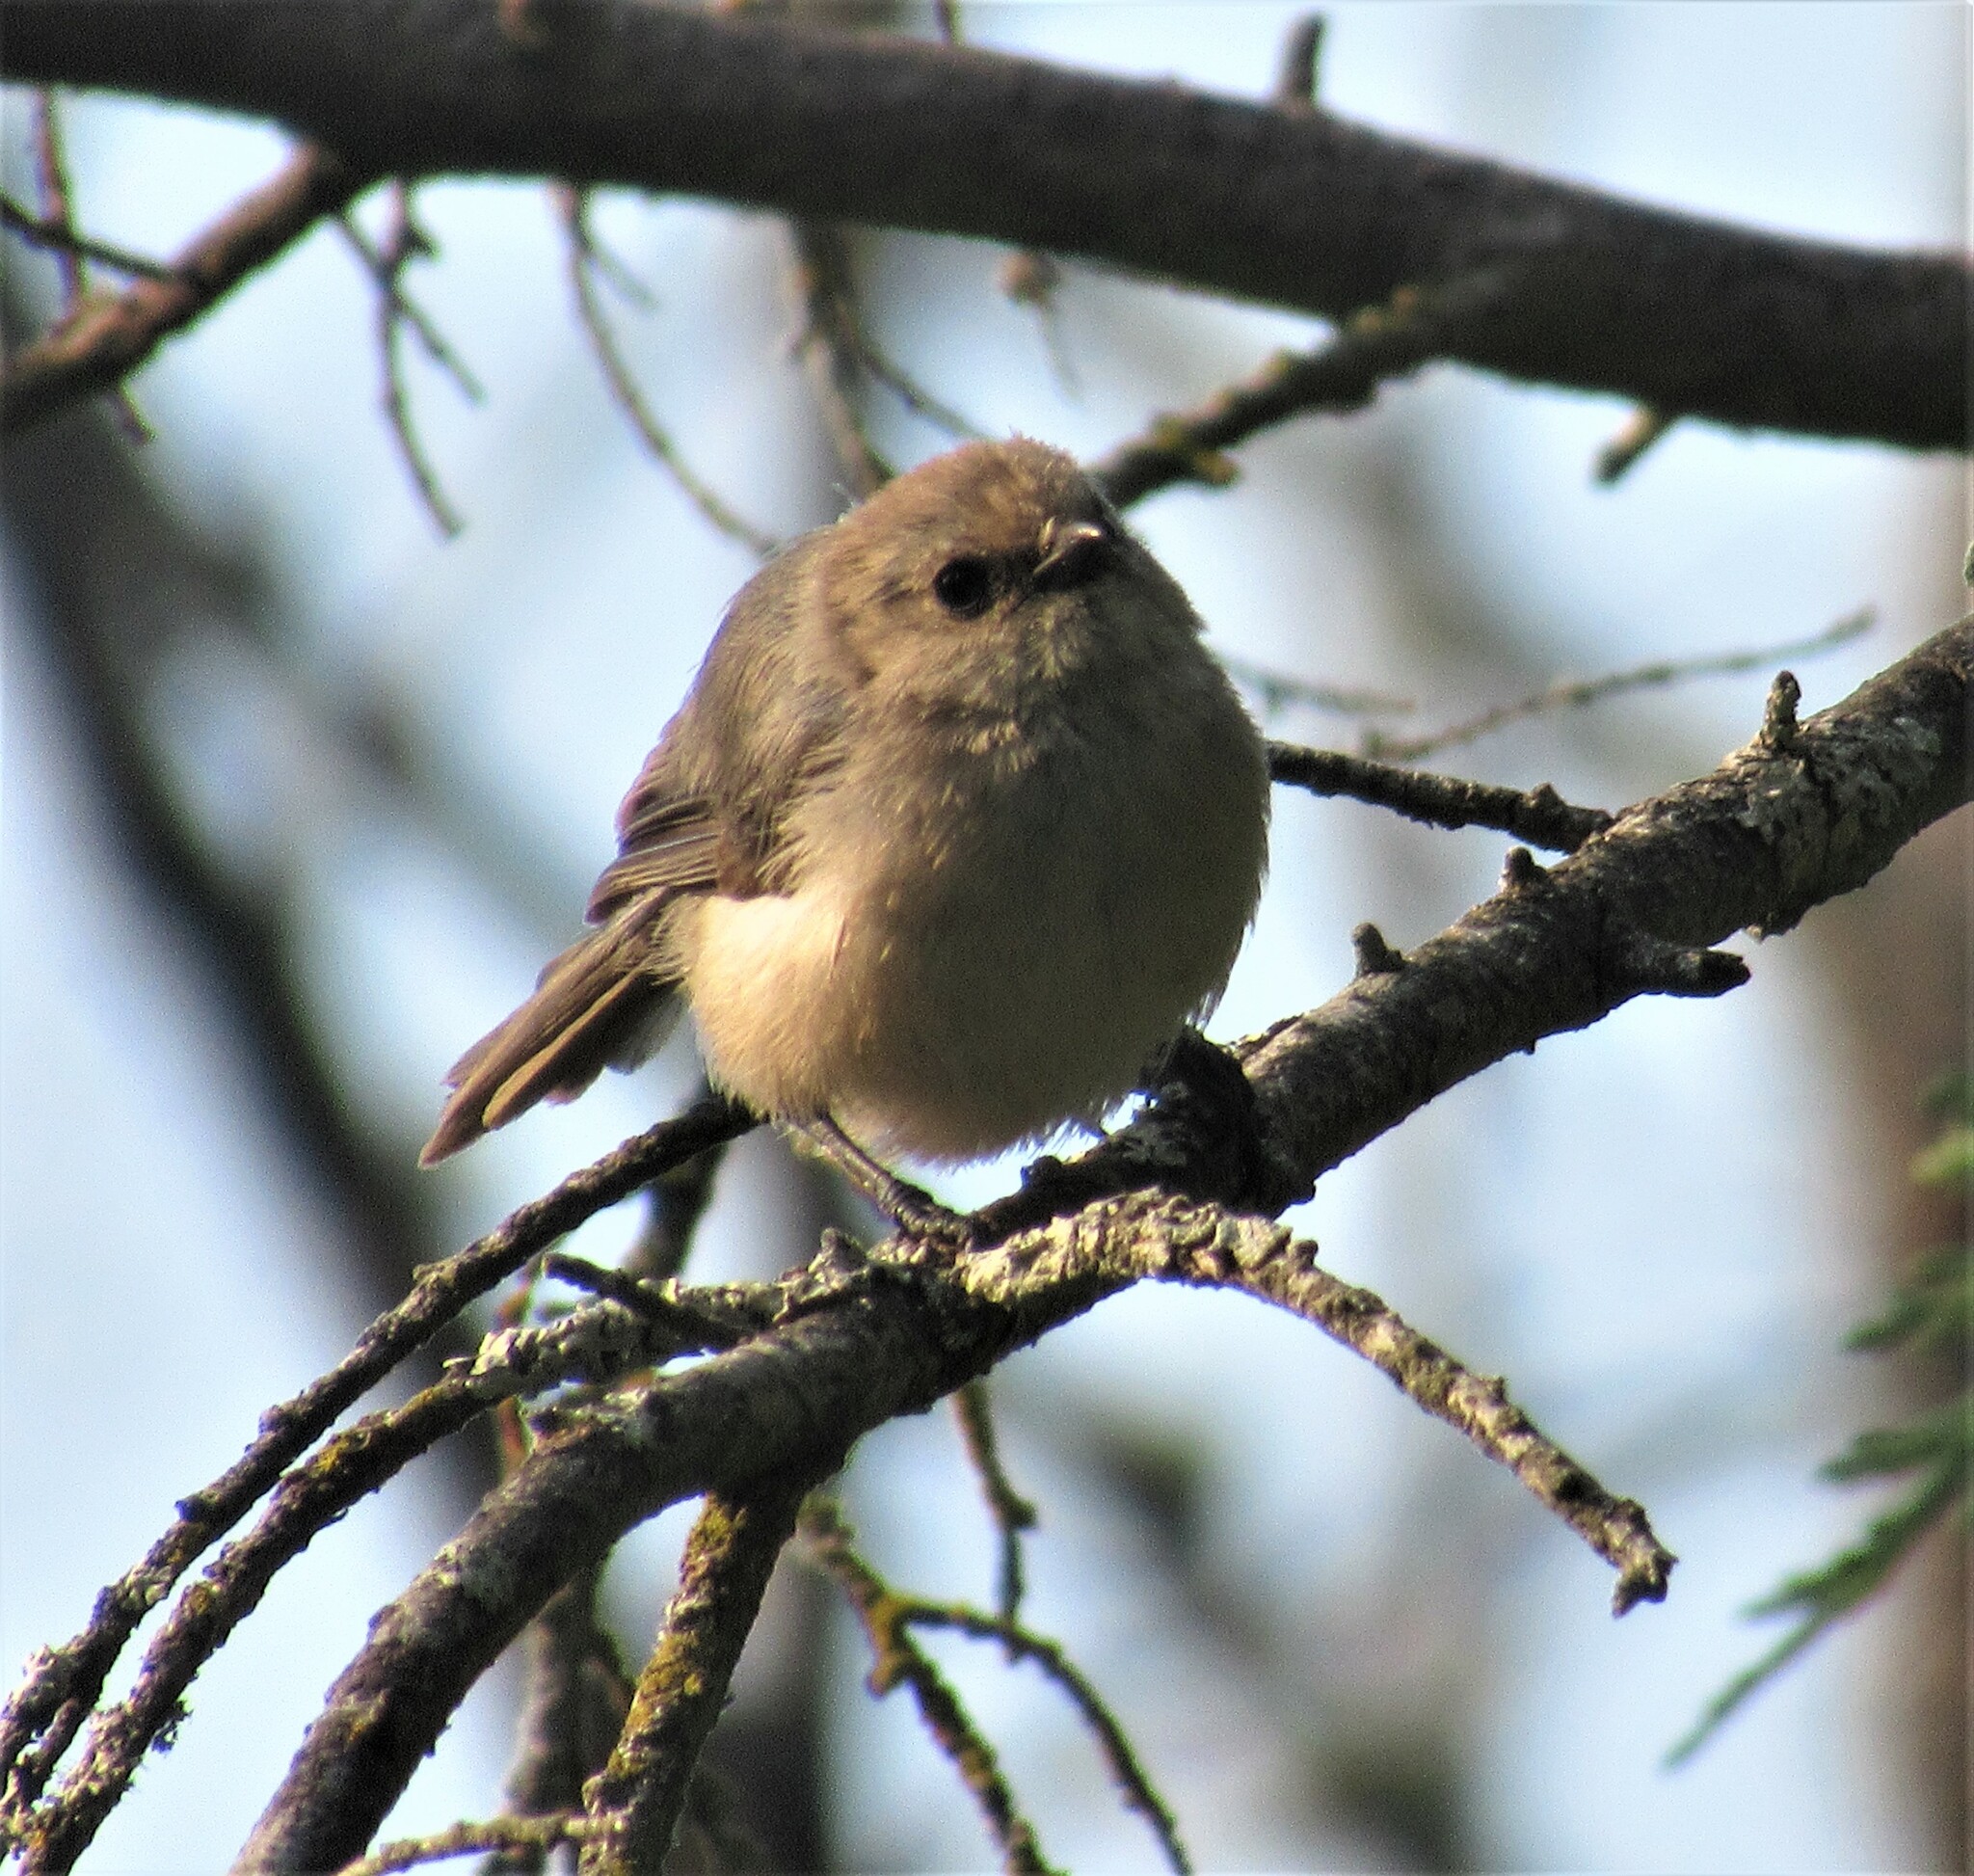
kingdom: Animalia
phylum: Chordata
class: Aves
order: Passeriformes
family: Aegithalidae
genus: Psaltriparus
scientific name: Psaltriparus minimus
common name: American bushtit
